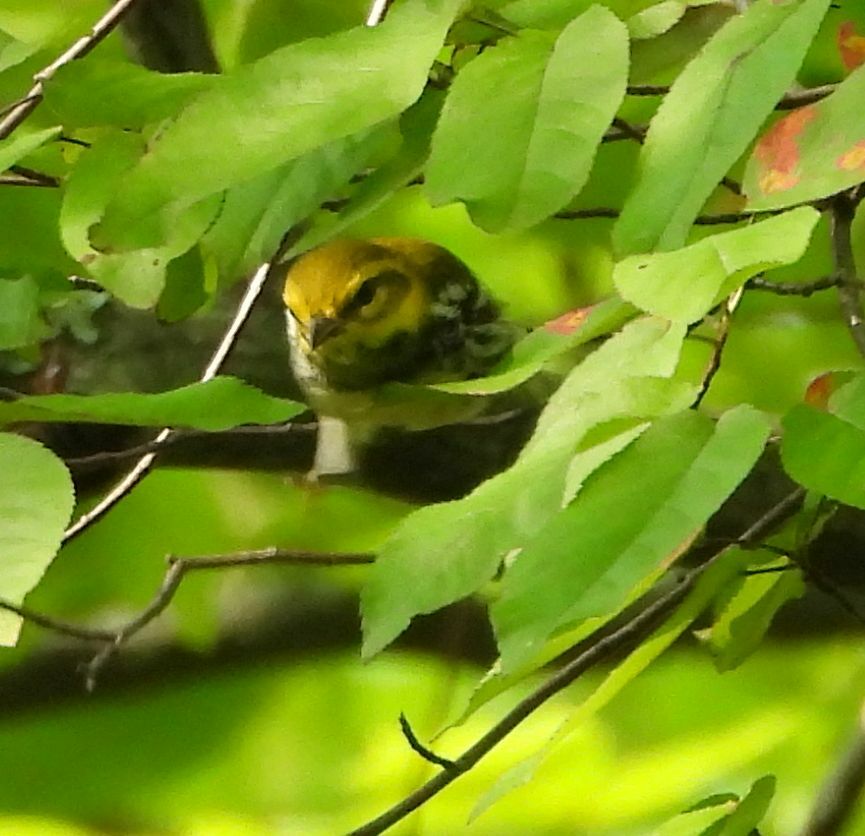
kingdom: Animalia
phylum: Chordata
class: Aves
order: Passeriformes
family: Parulidae
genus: Setophaga
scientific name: Setophaga virens
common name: Black-throated green warbler
